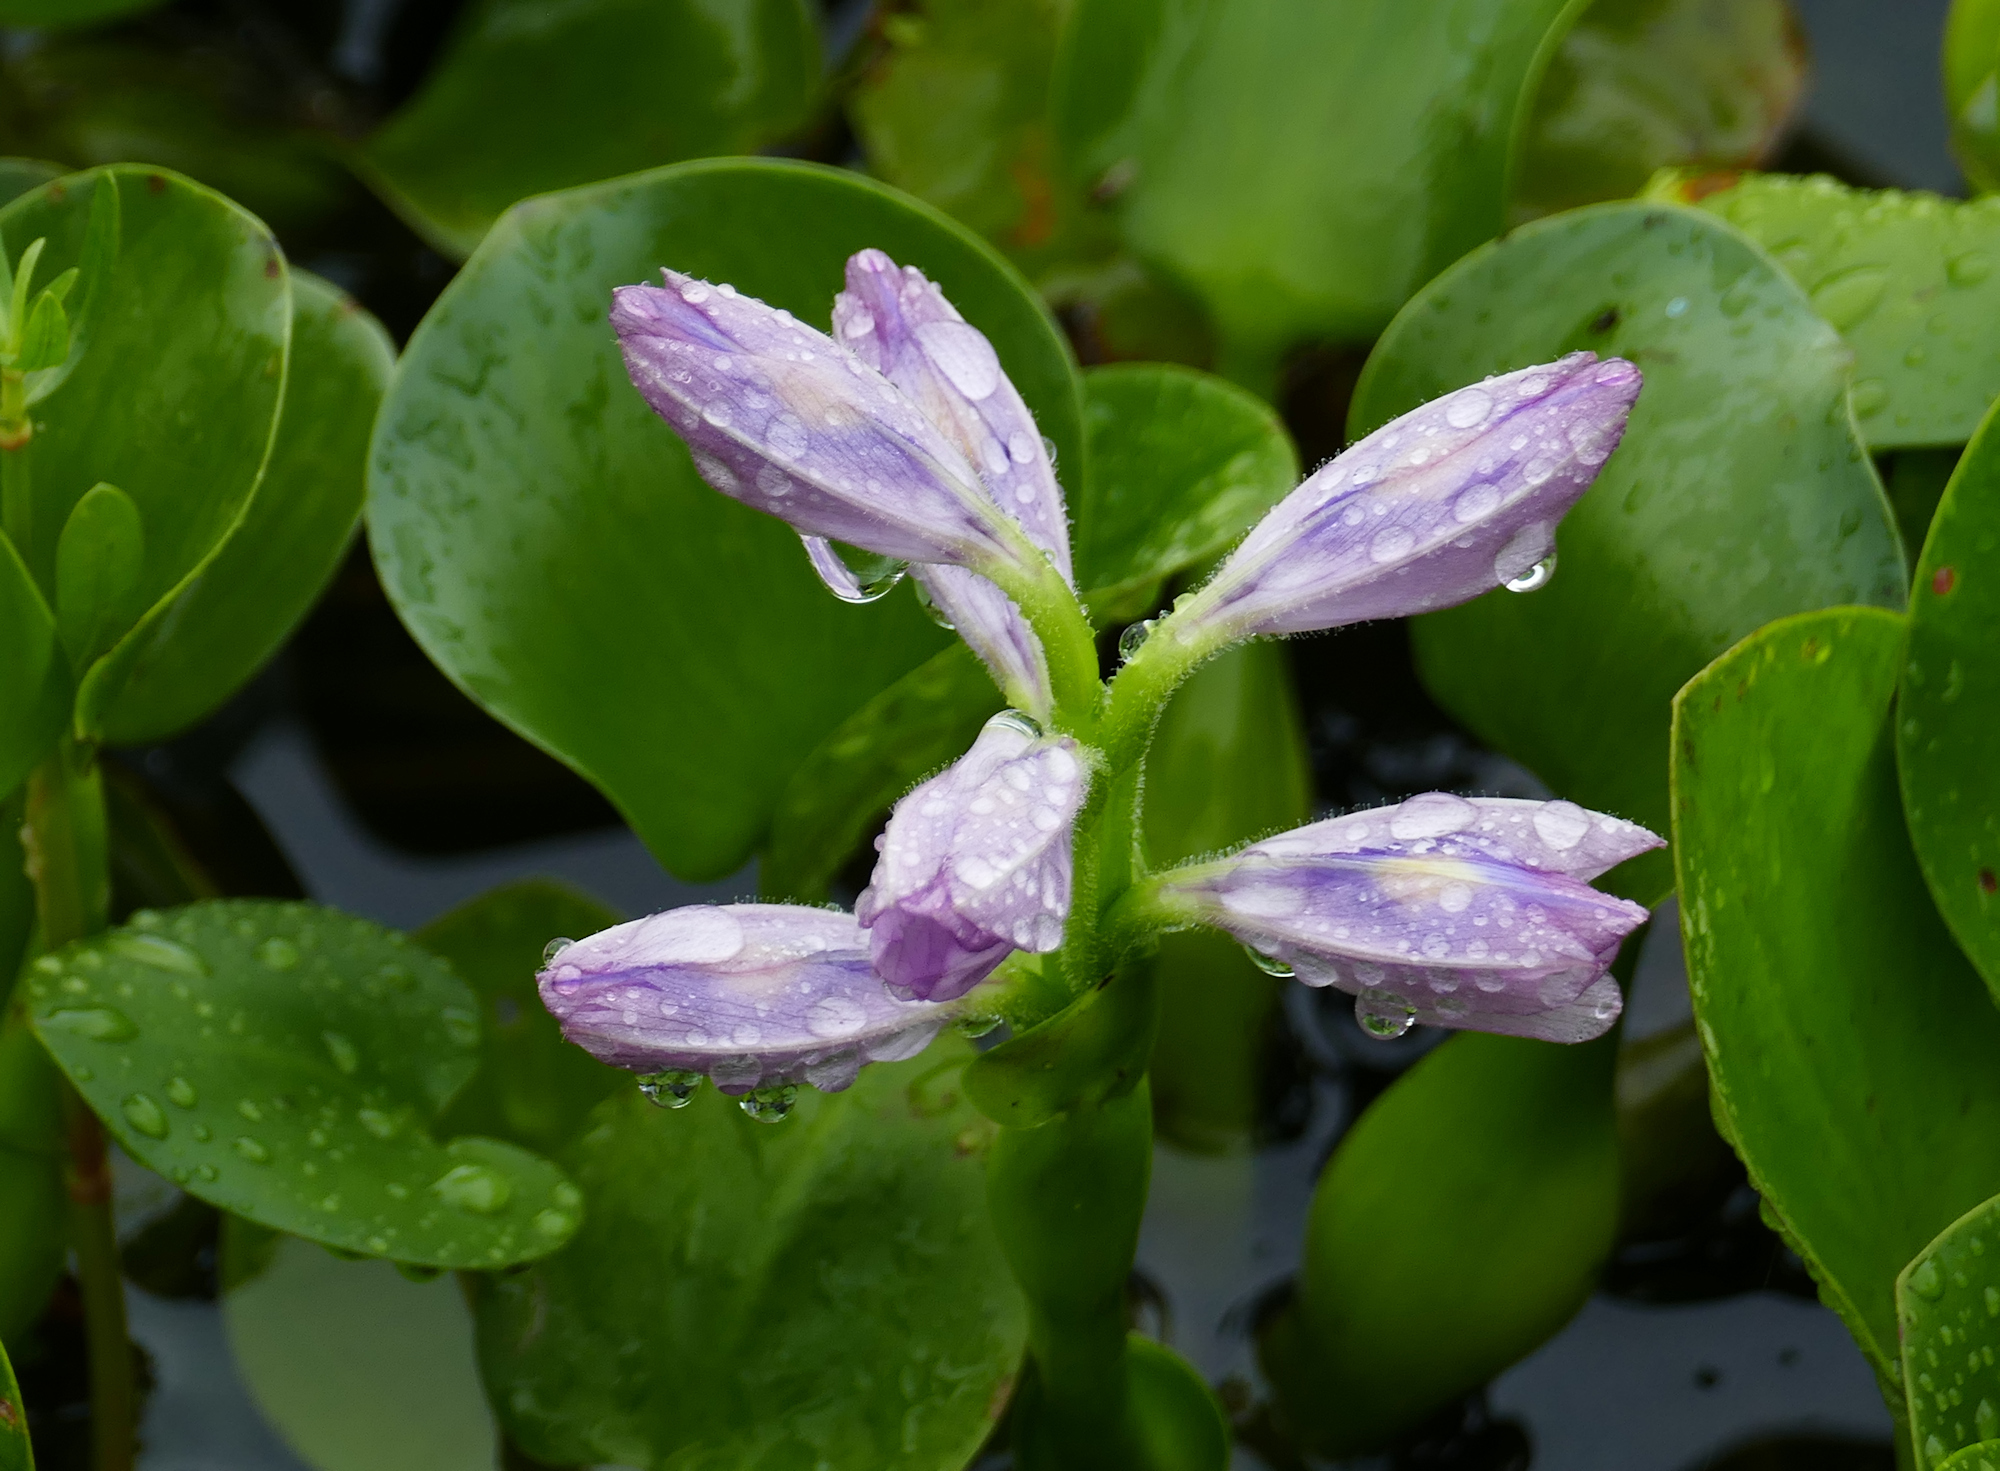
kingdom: Plantae
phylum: Tracheophyta
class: Liliopsida
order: Commelinales
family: Pontederiaceae
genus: Pontederia
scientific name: Pontederia crassipes
